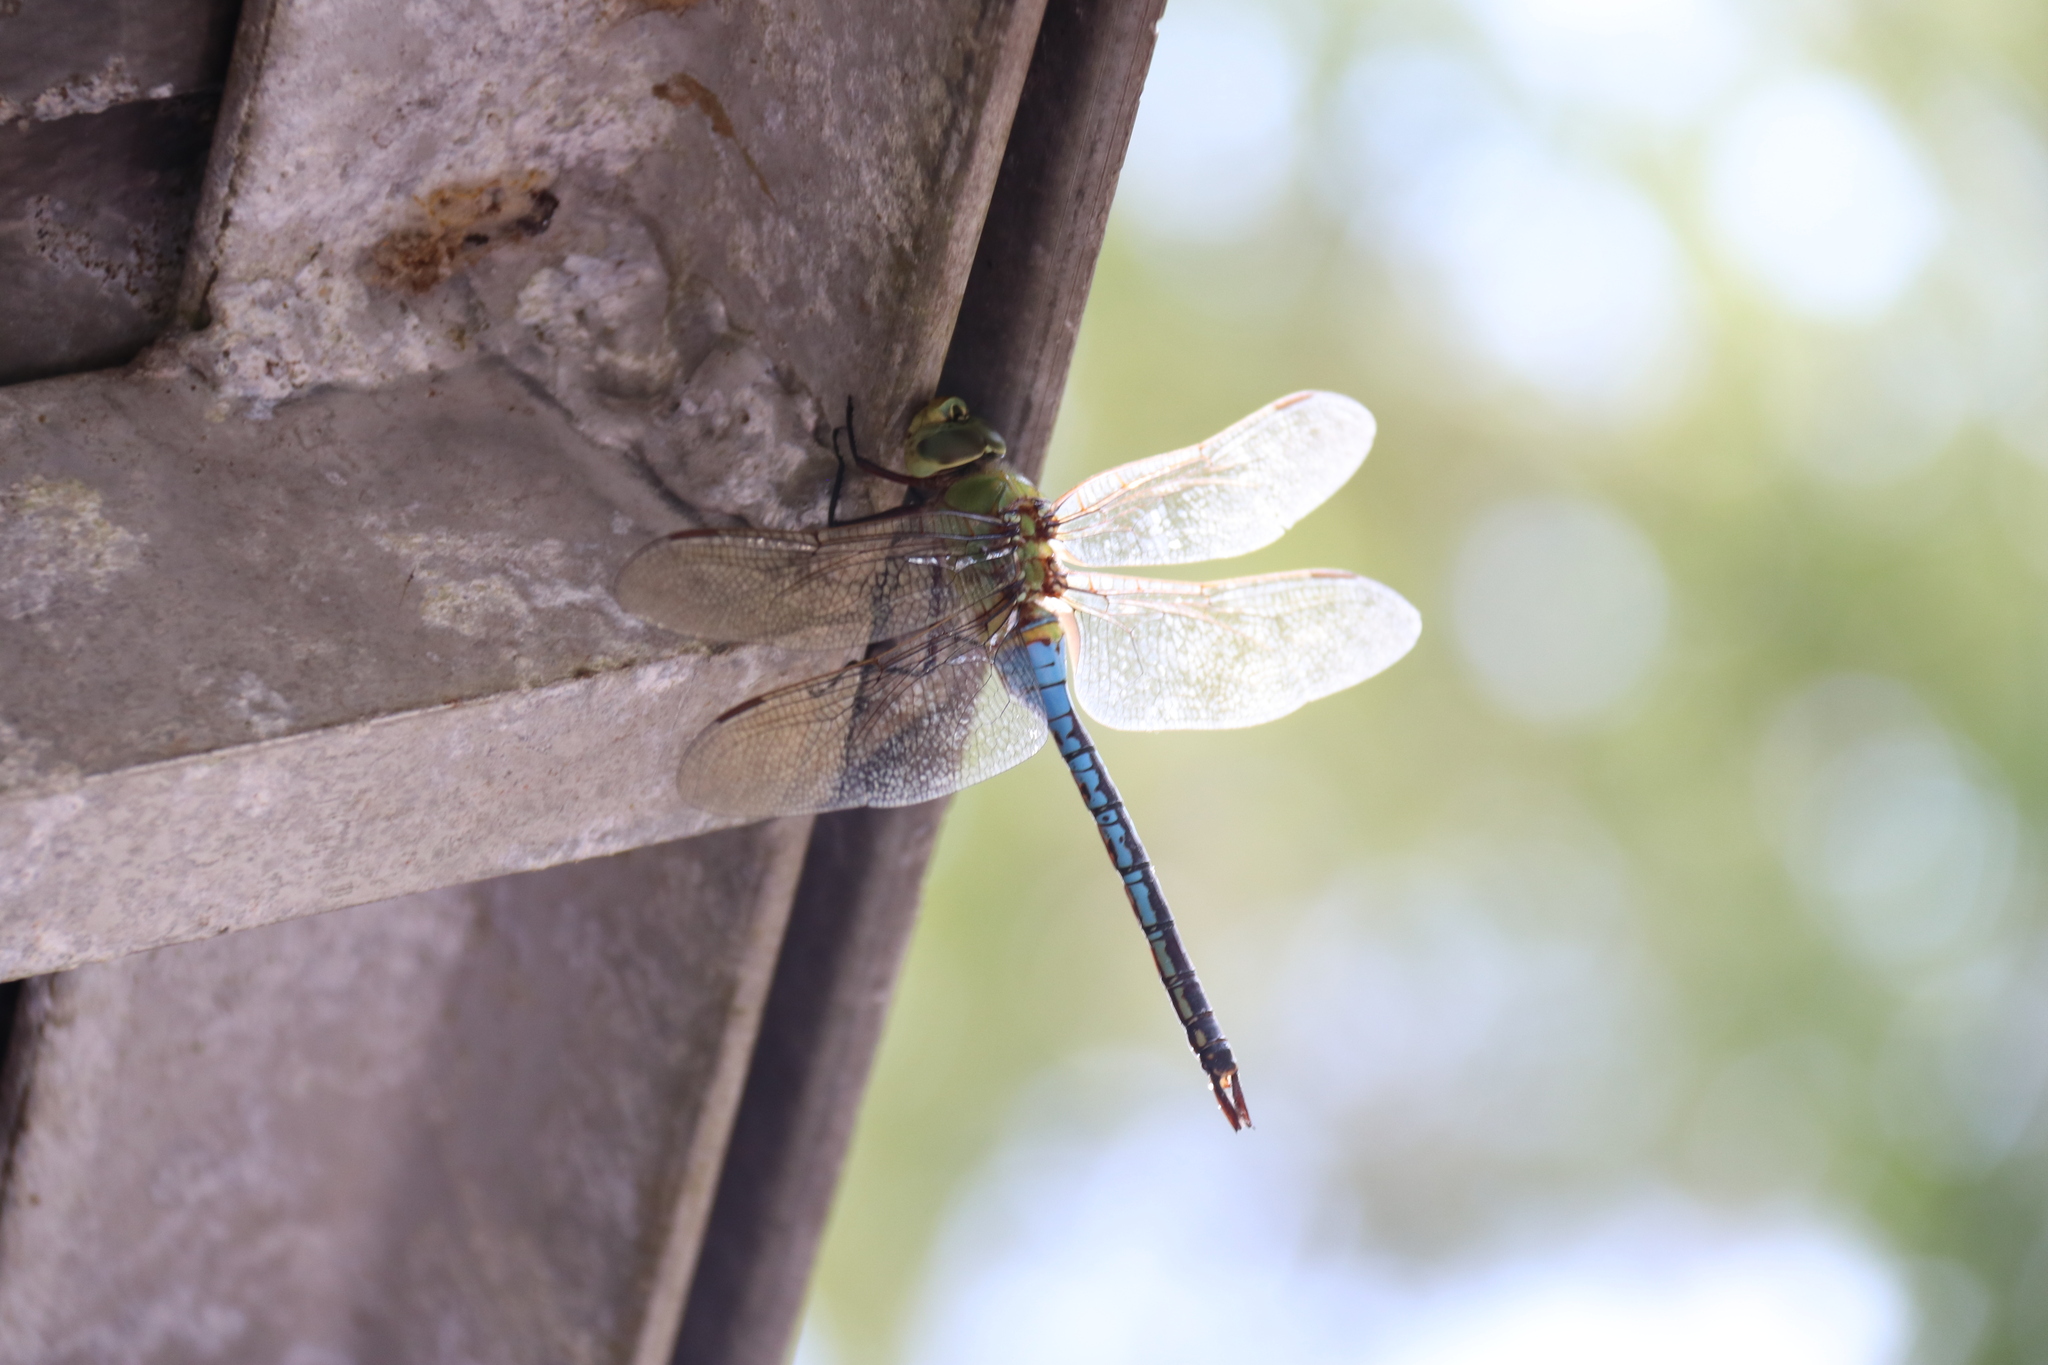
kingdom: Animalia
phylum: Arthropoda
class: Insecta
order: Odonata
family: Aeshnidae
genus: Anax
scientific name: Anax junius
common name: Common green darner
